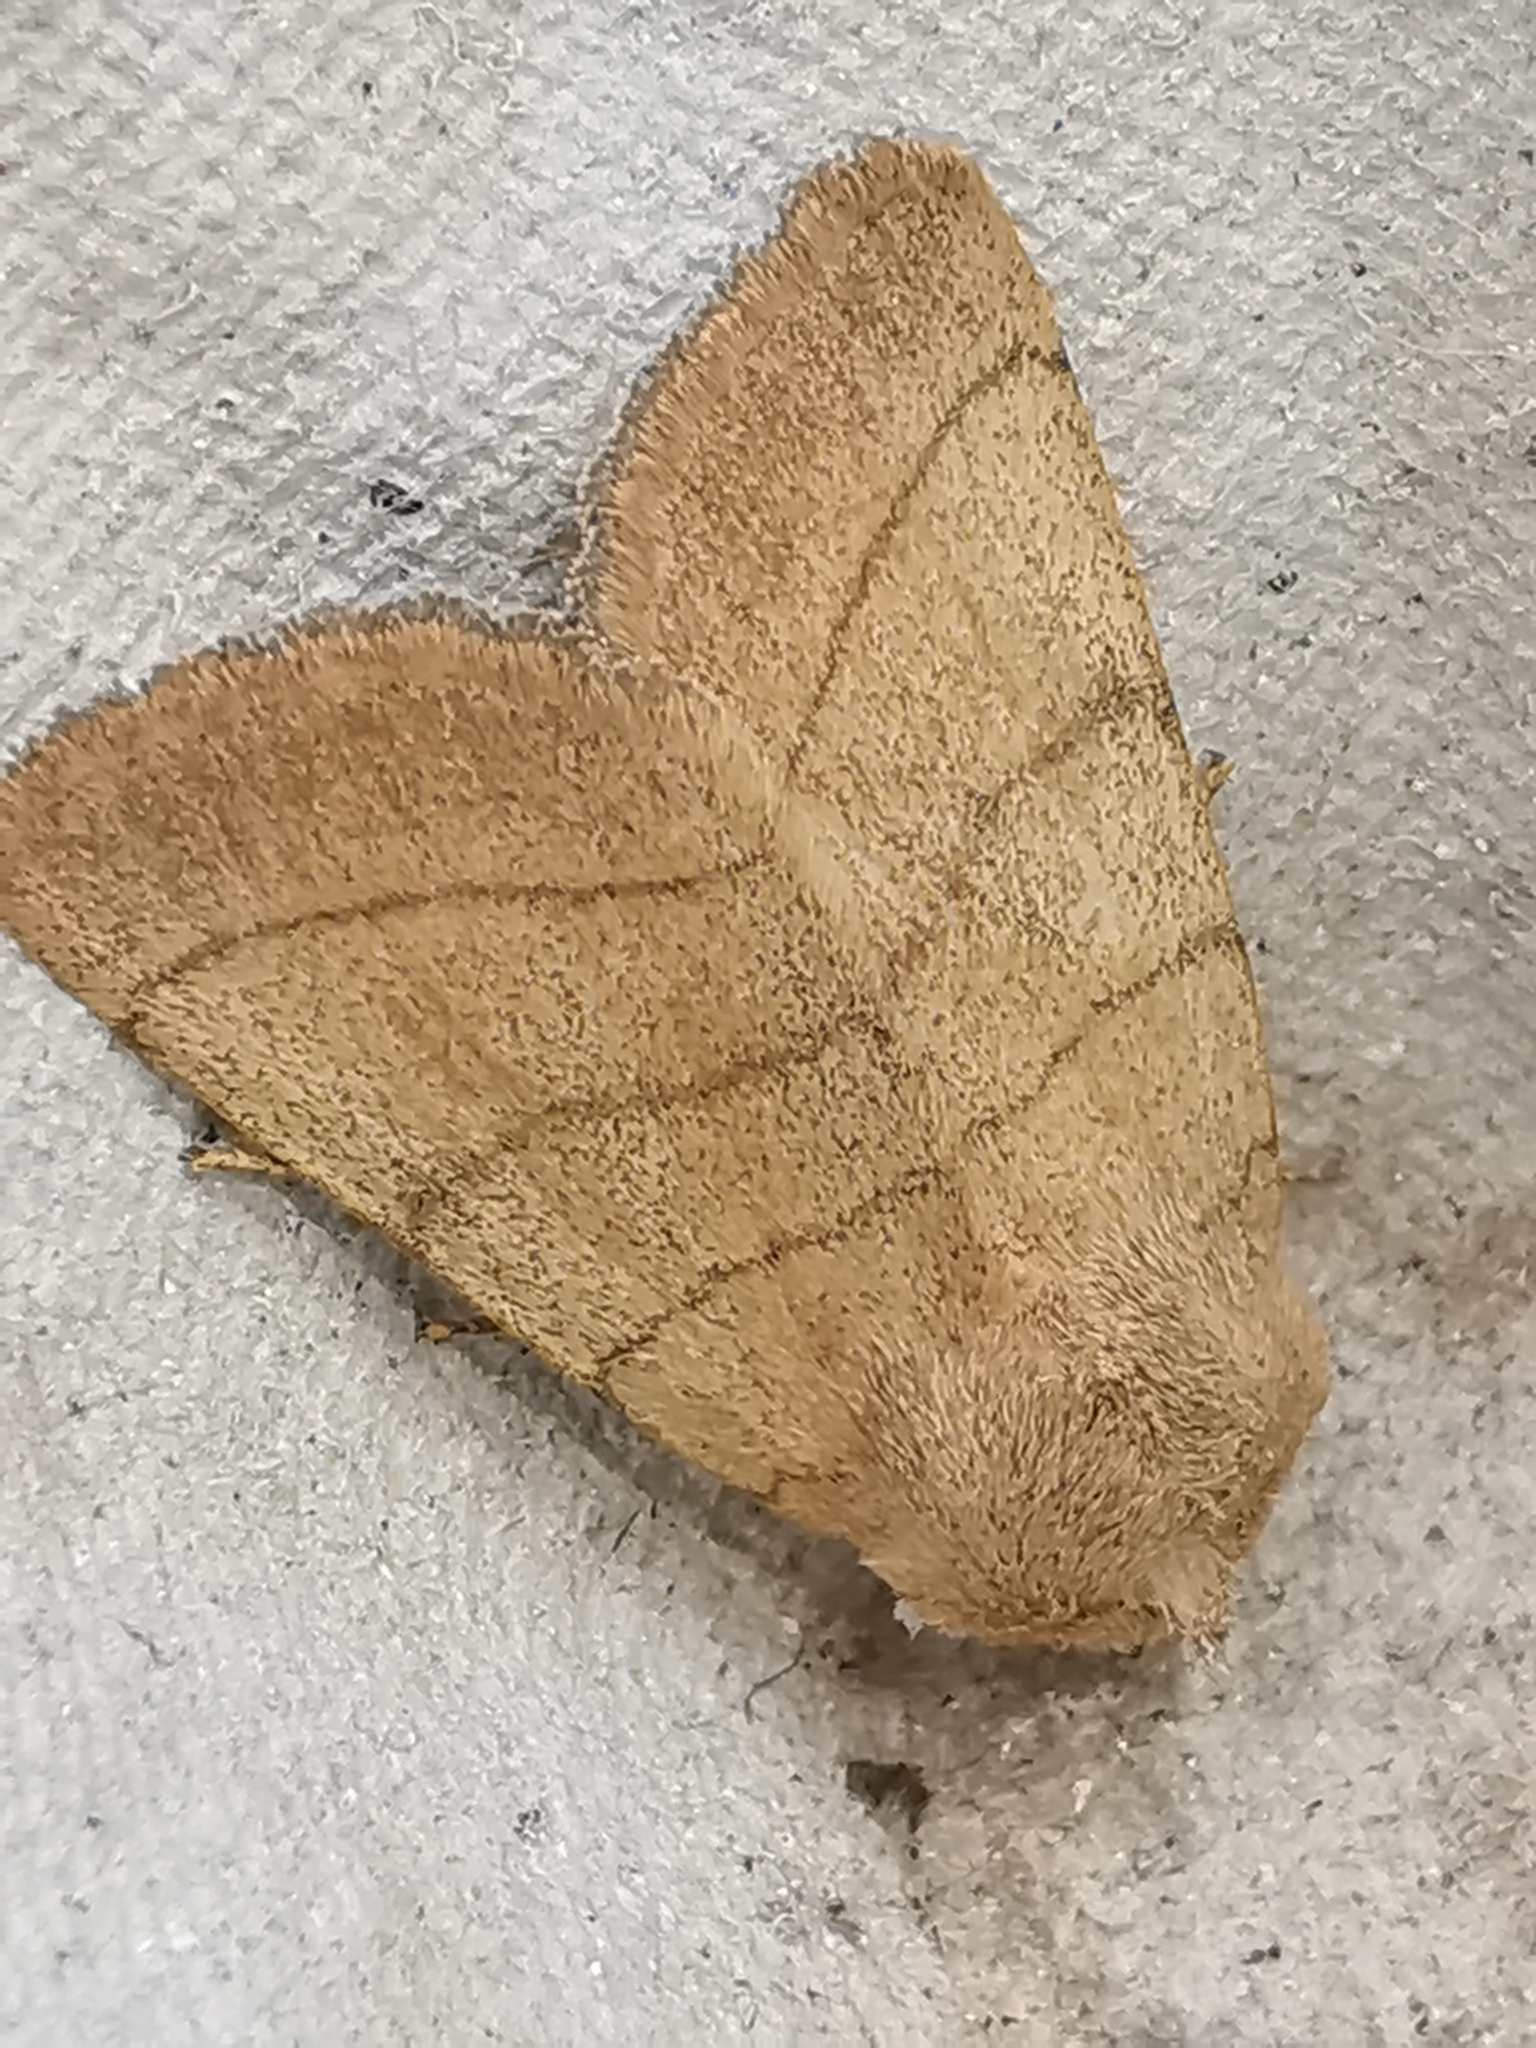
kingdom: Animalia
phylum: Arthropoda
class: Insecta
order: Lepidoptera
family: Noctuidae
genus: Charanyca
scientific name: Charanyca trigrammica
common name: Treble lines
